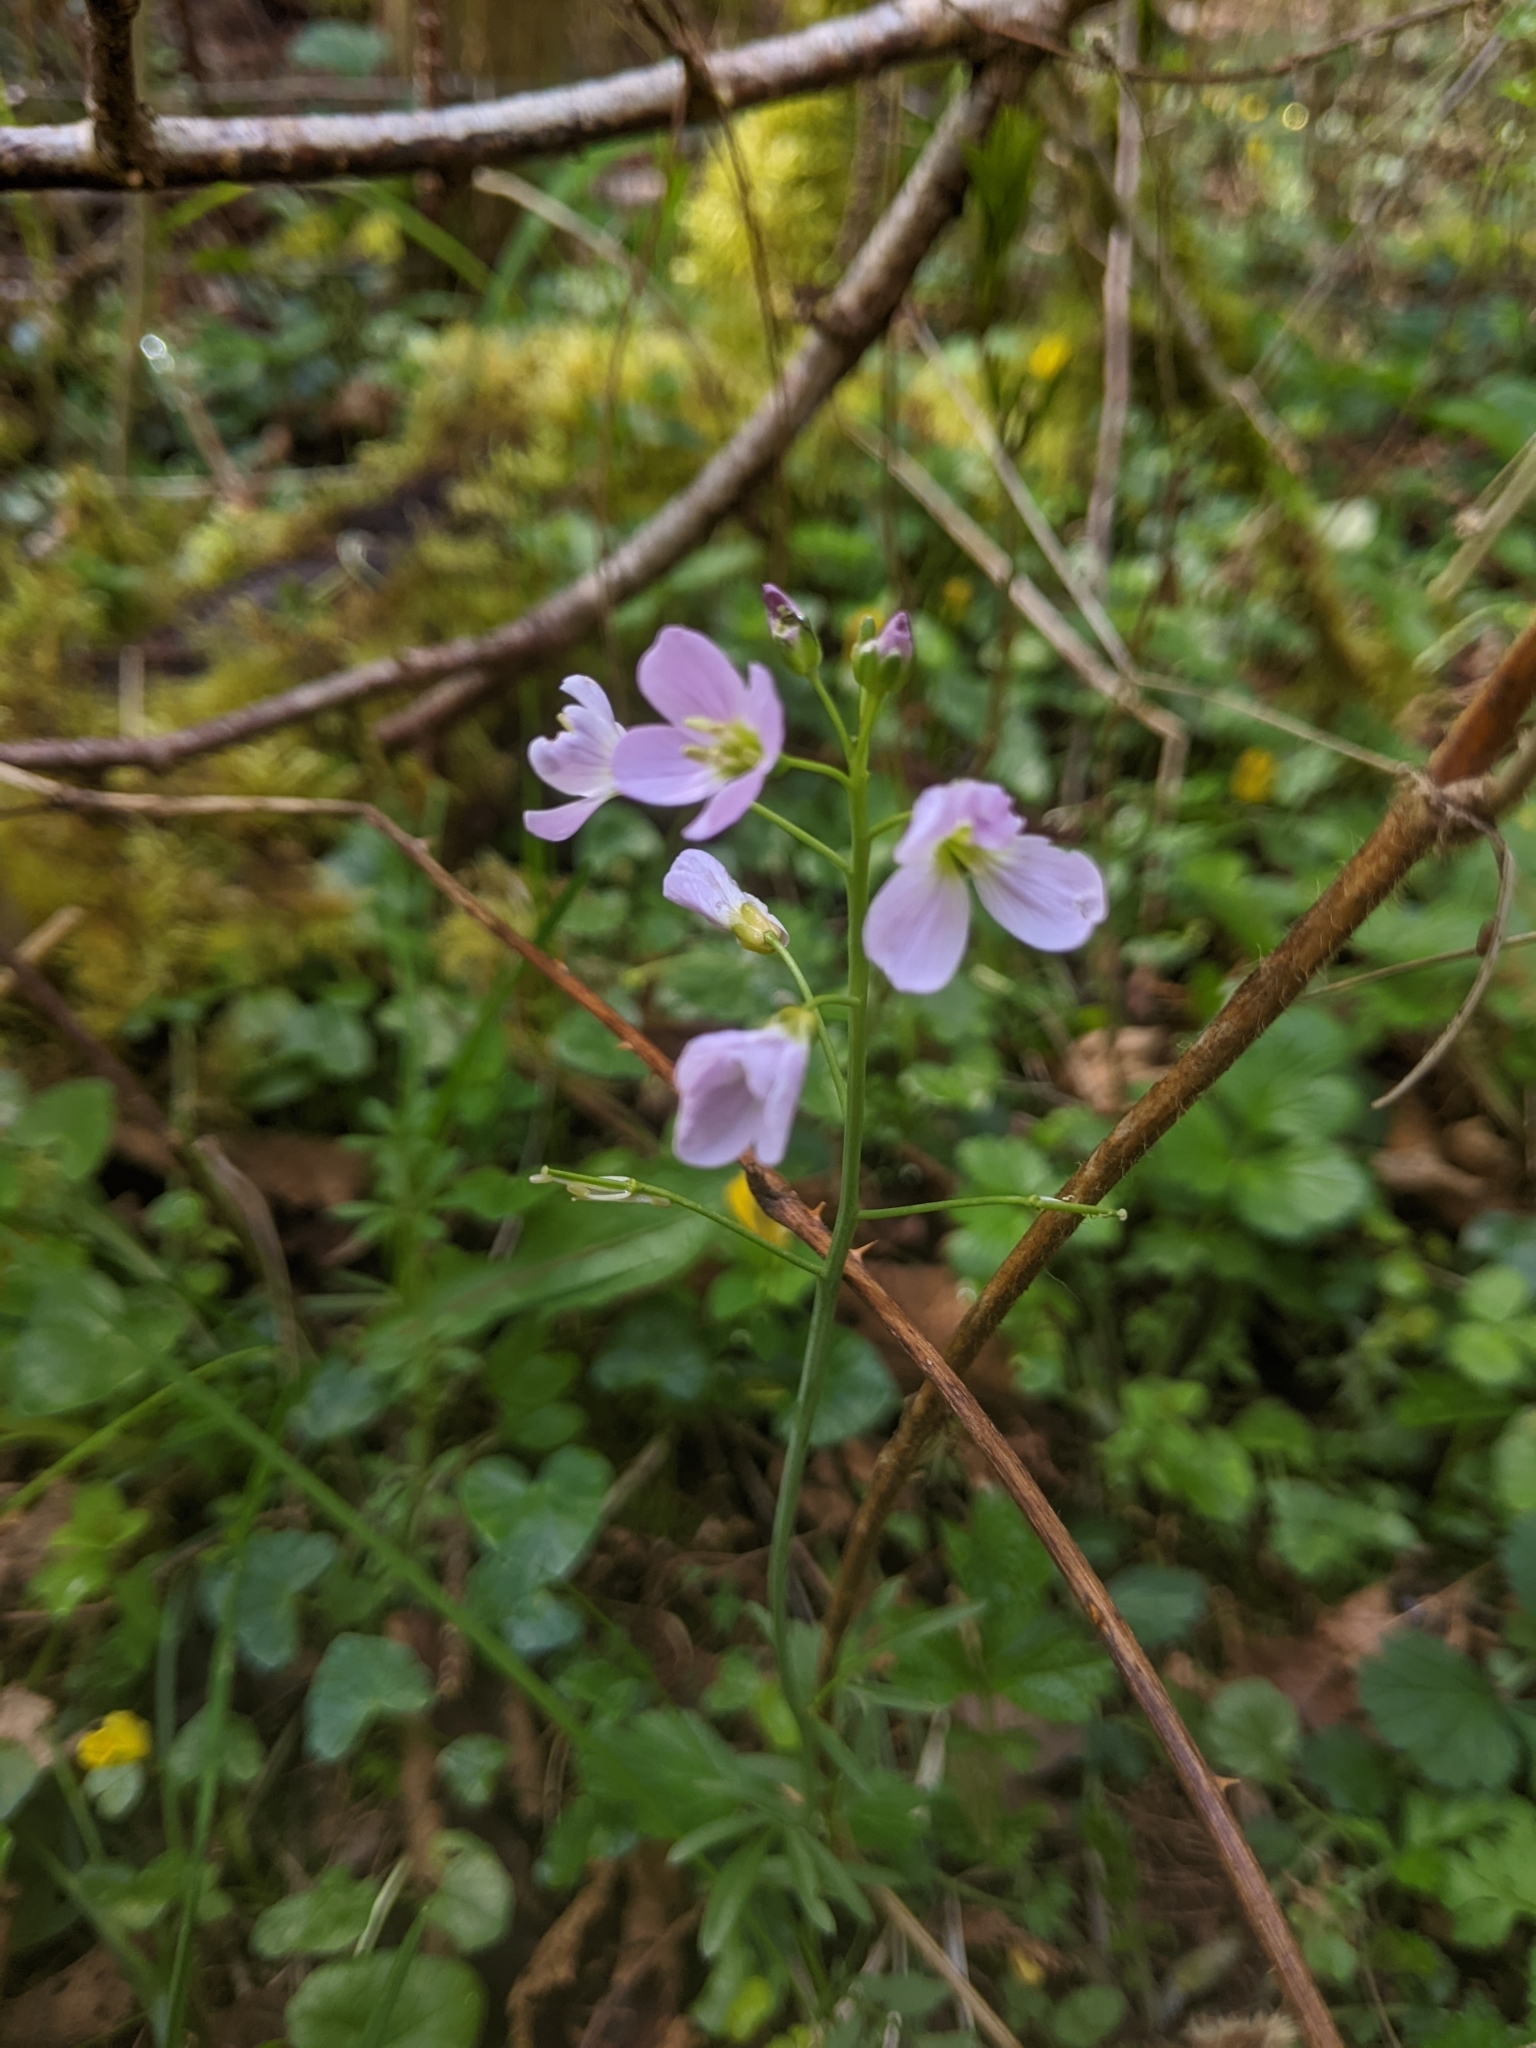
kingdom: Plantae
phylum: Tracheophyta
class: Magnoliopsida
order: Brassicales
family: Brassicaceae
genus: Cardamine
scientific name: Cardamine pratensis
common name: Cuckoo flower
